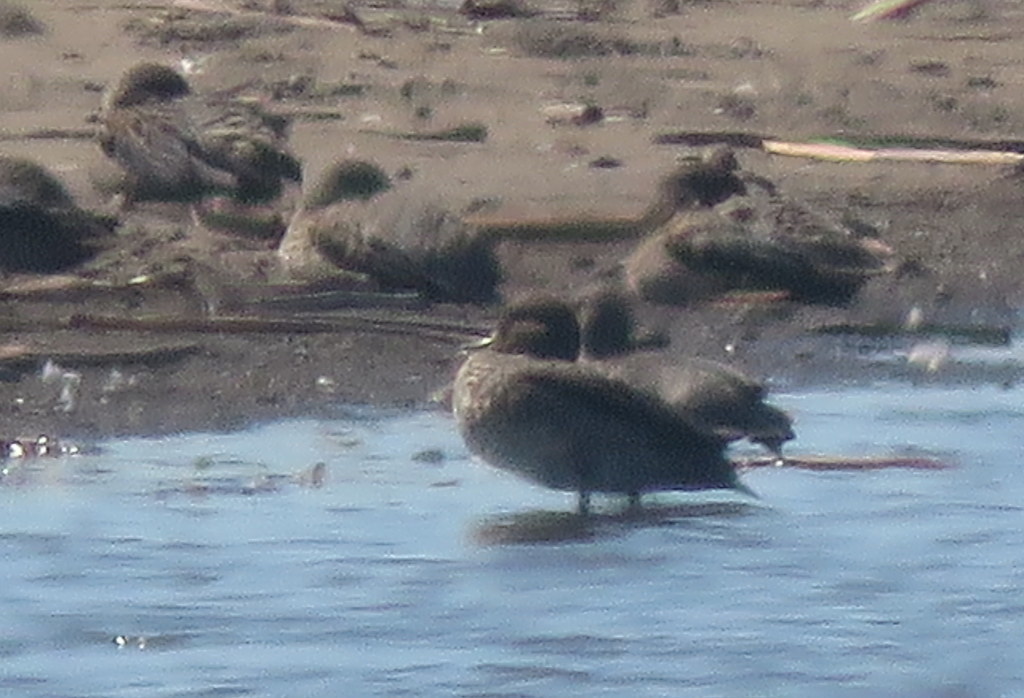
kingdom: Animalia
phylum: Chordata
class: Aves
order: Anseriformes
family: Anatidae
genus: Anas
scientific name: Anas flavirostris
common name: Yellow-billed teal
